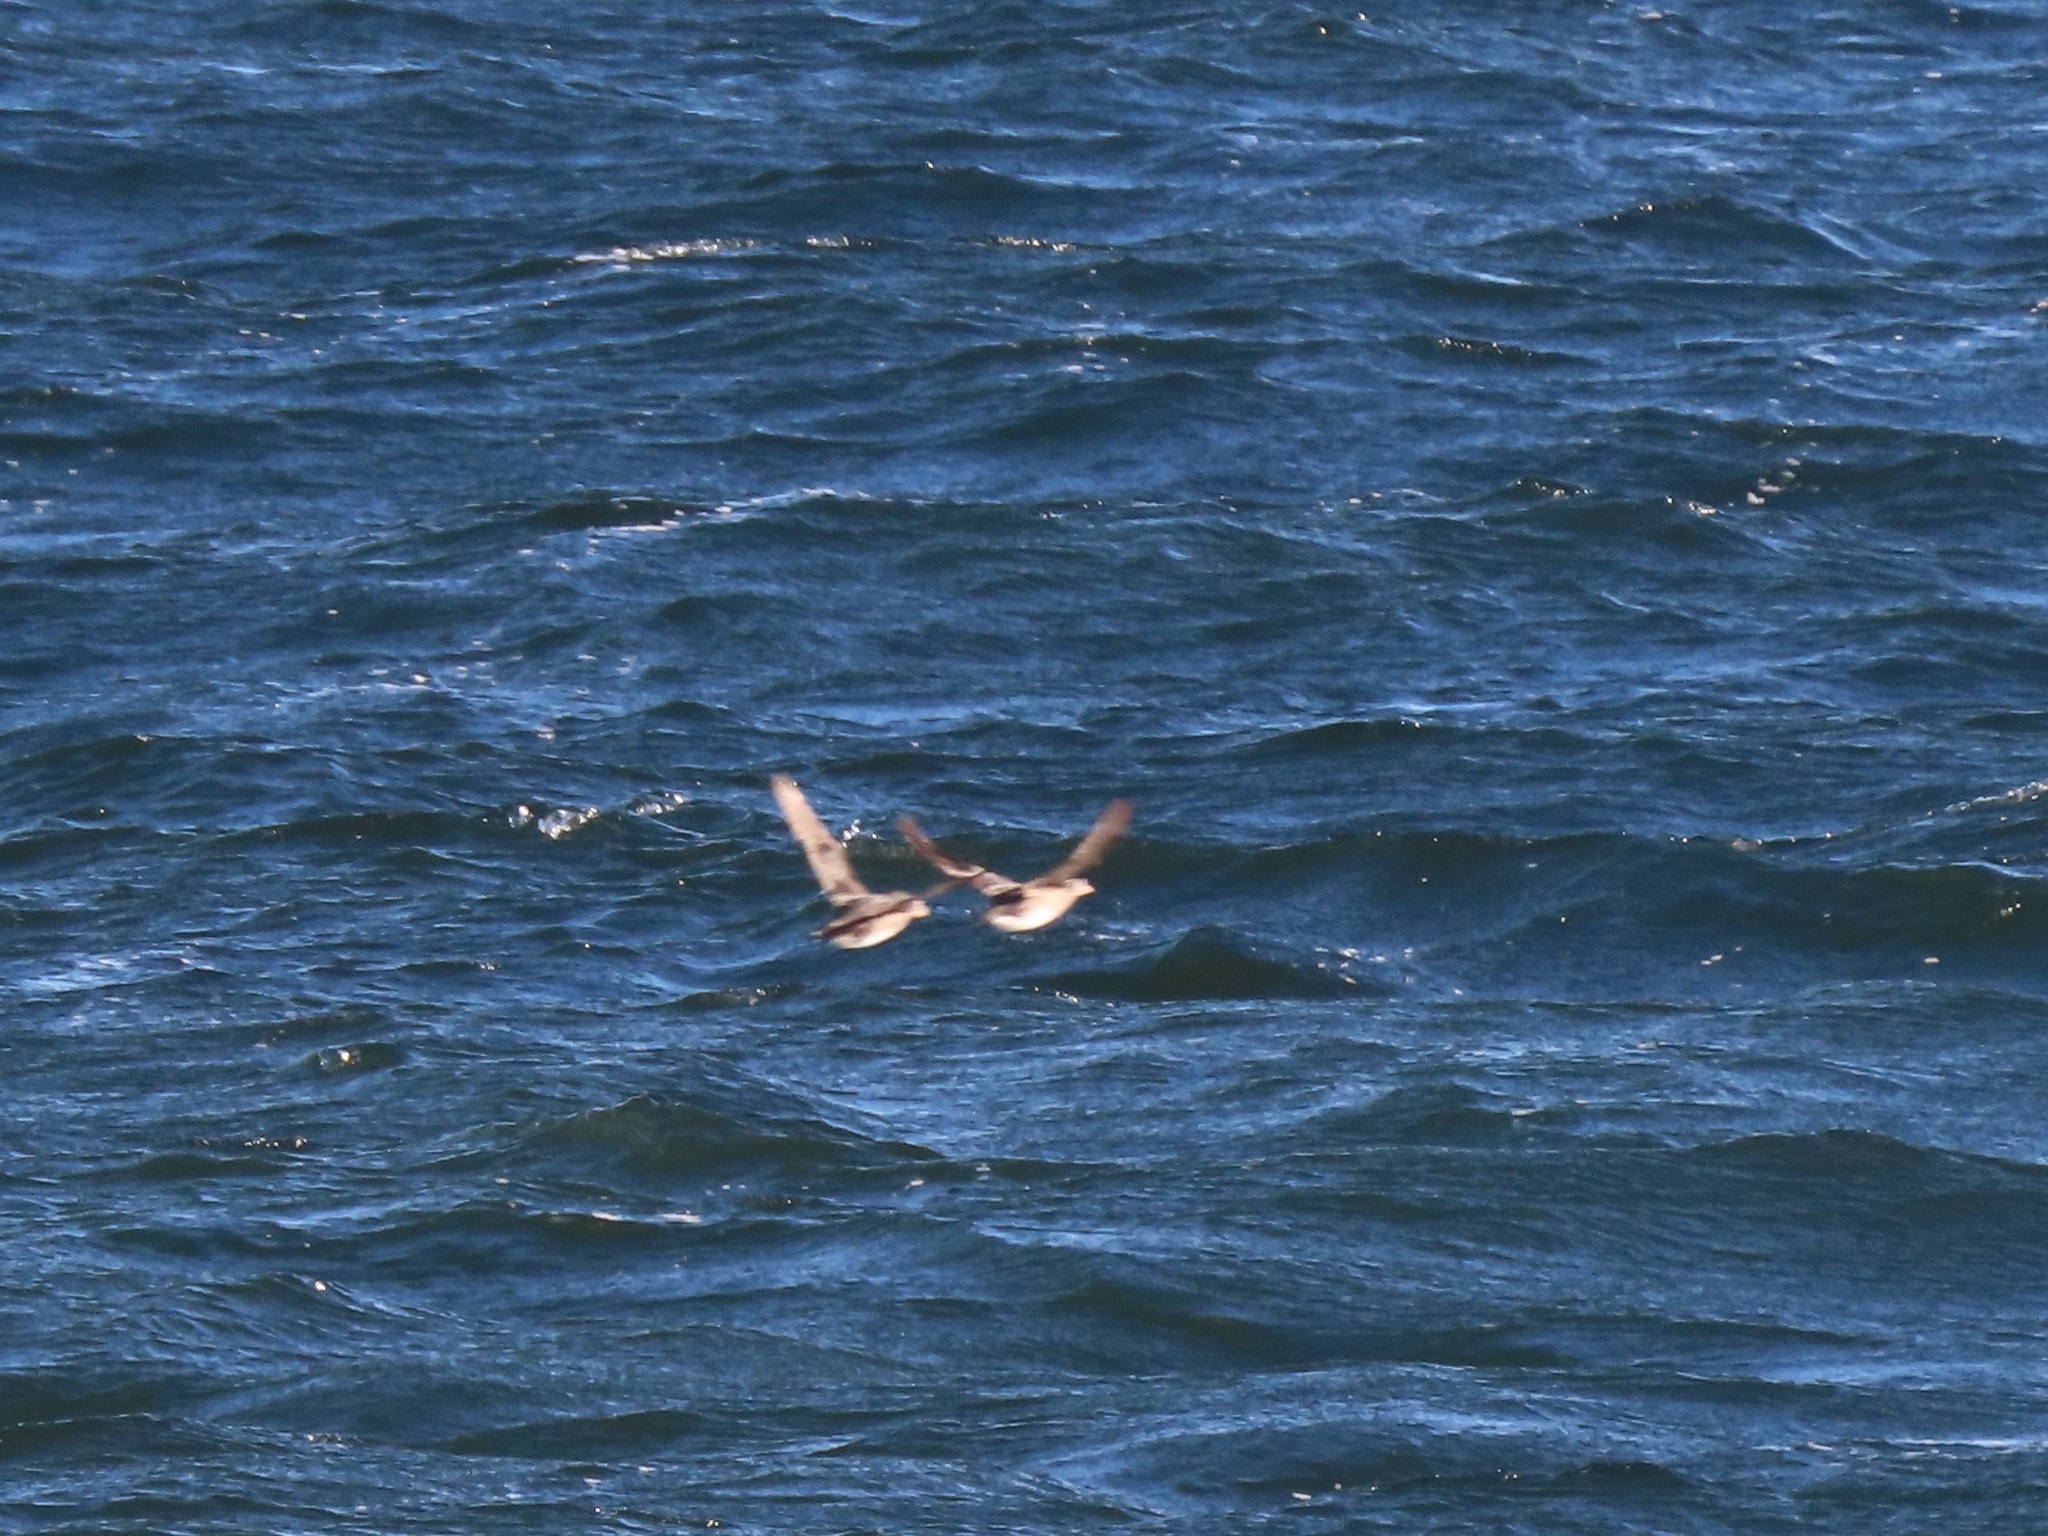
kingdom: Animalia
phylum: Chordata
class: Aves
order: Charadriiformes
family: Alcidae
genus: Cerorhinca
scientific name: Cerorhinca monocerata
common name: Rhinoceros auklet
